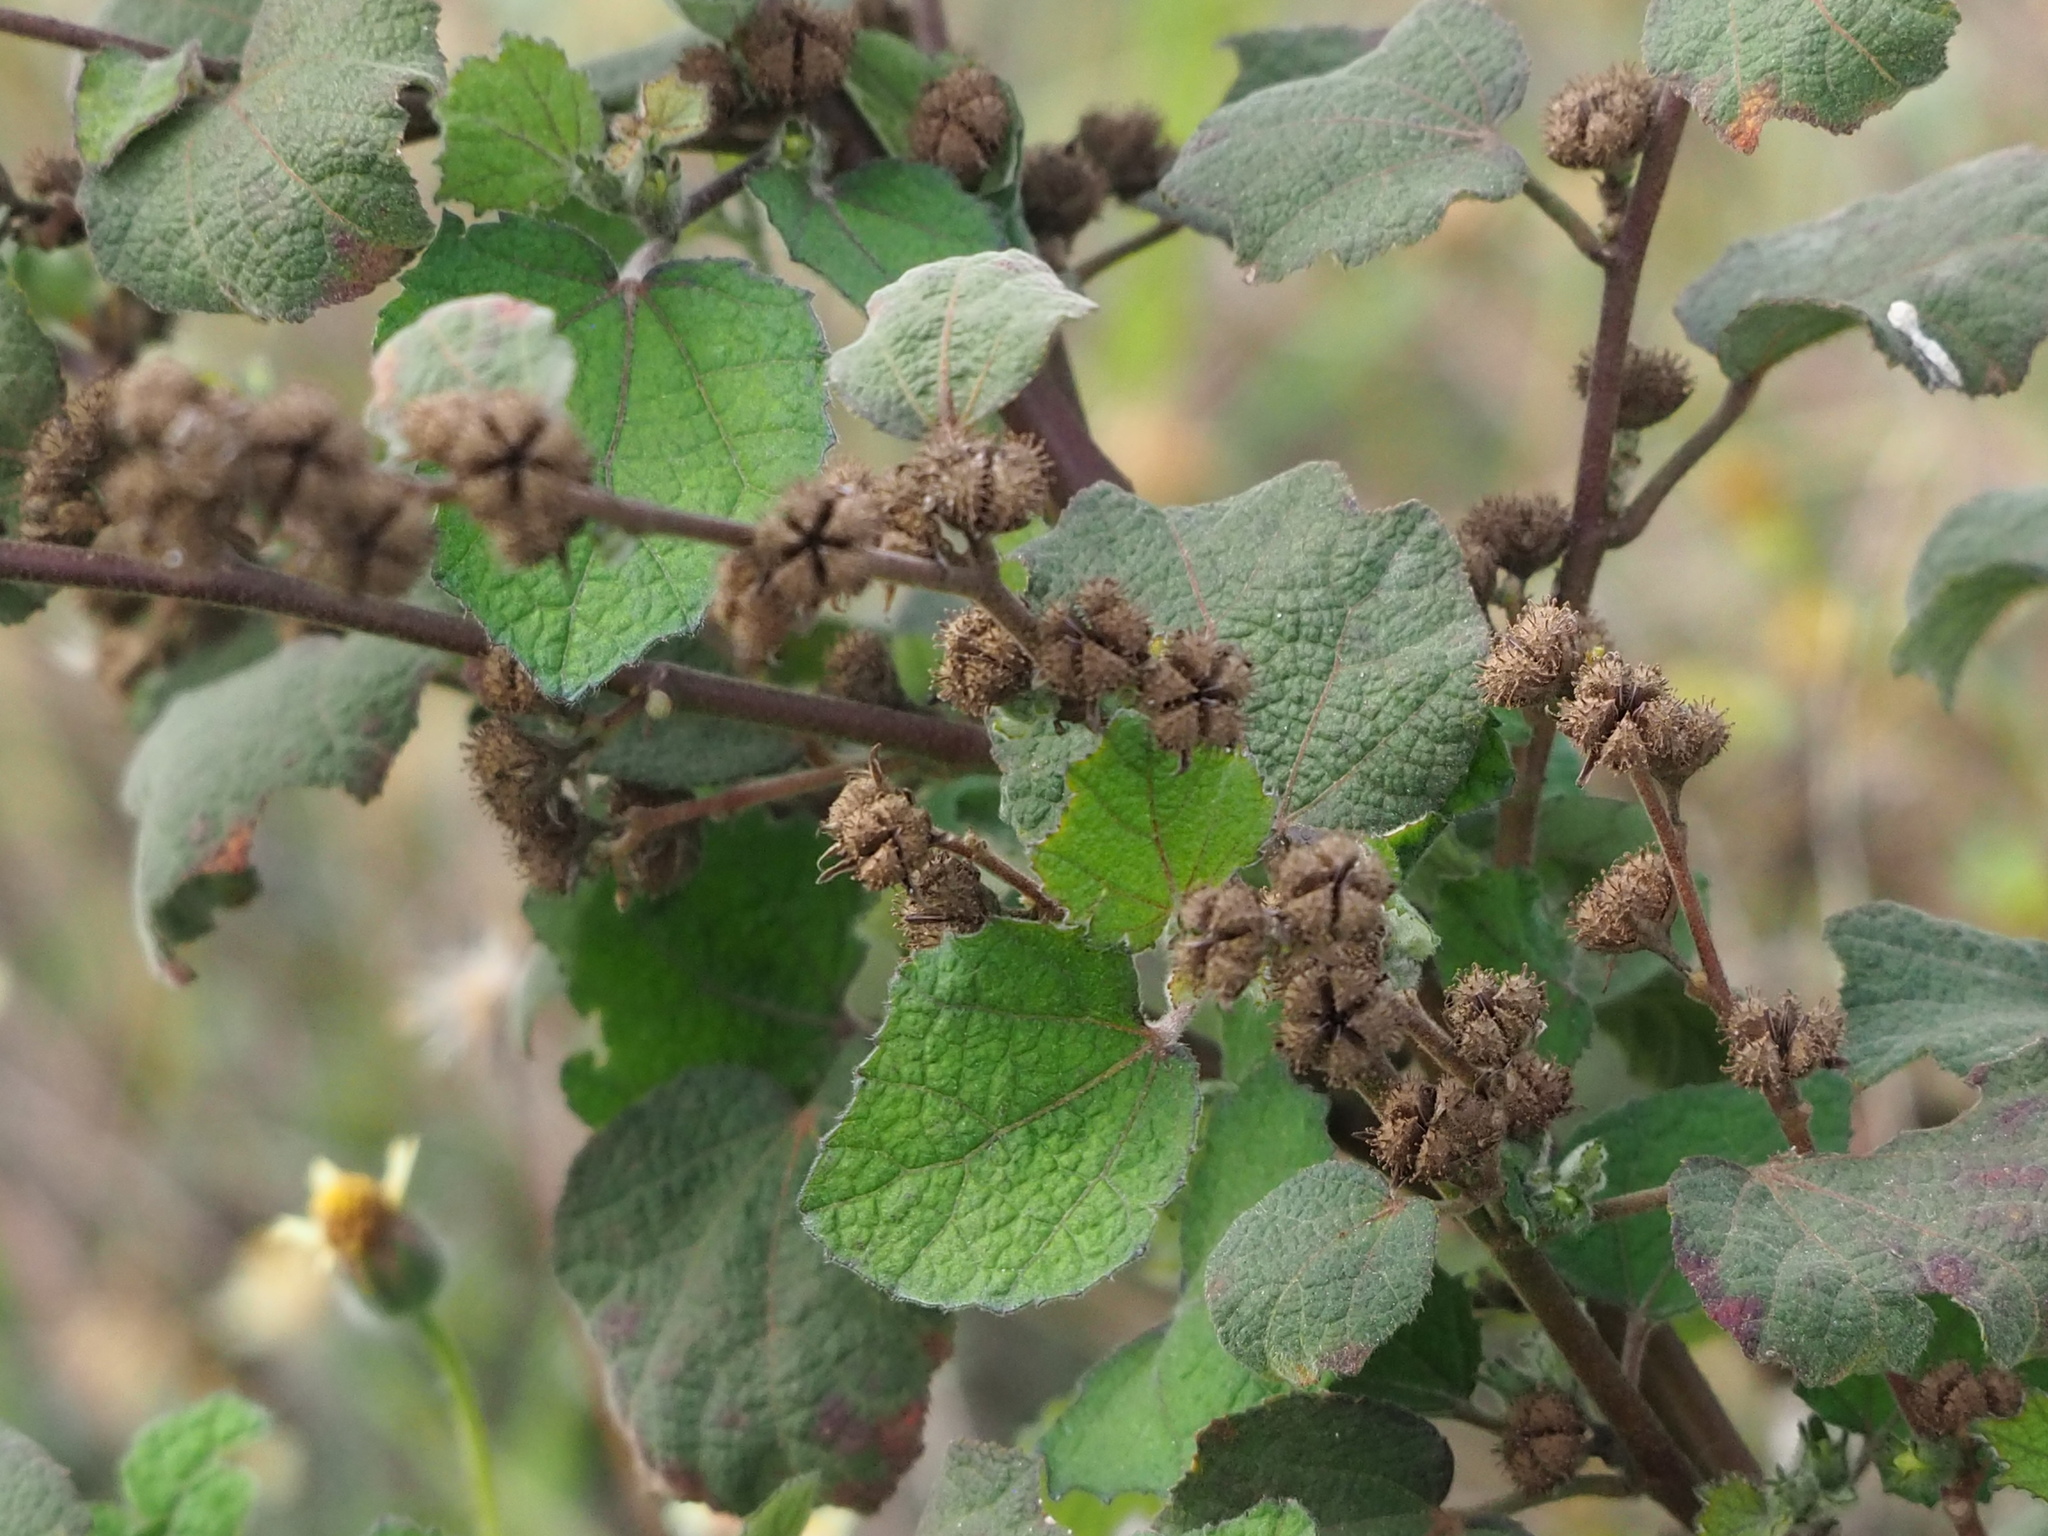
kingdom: Plantae
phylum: Tracheophyta
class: Magnoliopsida
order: Malvales
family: Malvaceae
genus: Urena
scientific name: Urena lobata
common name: Caesarweed
